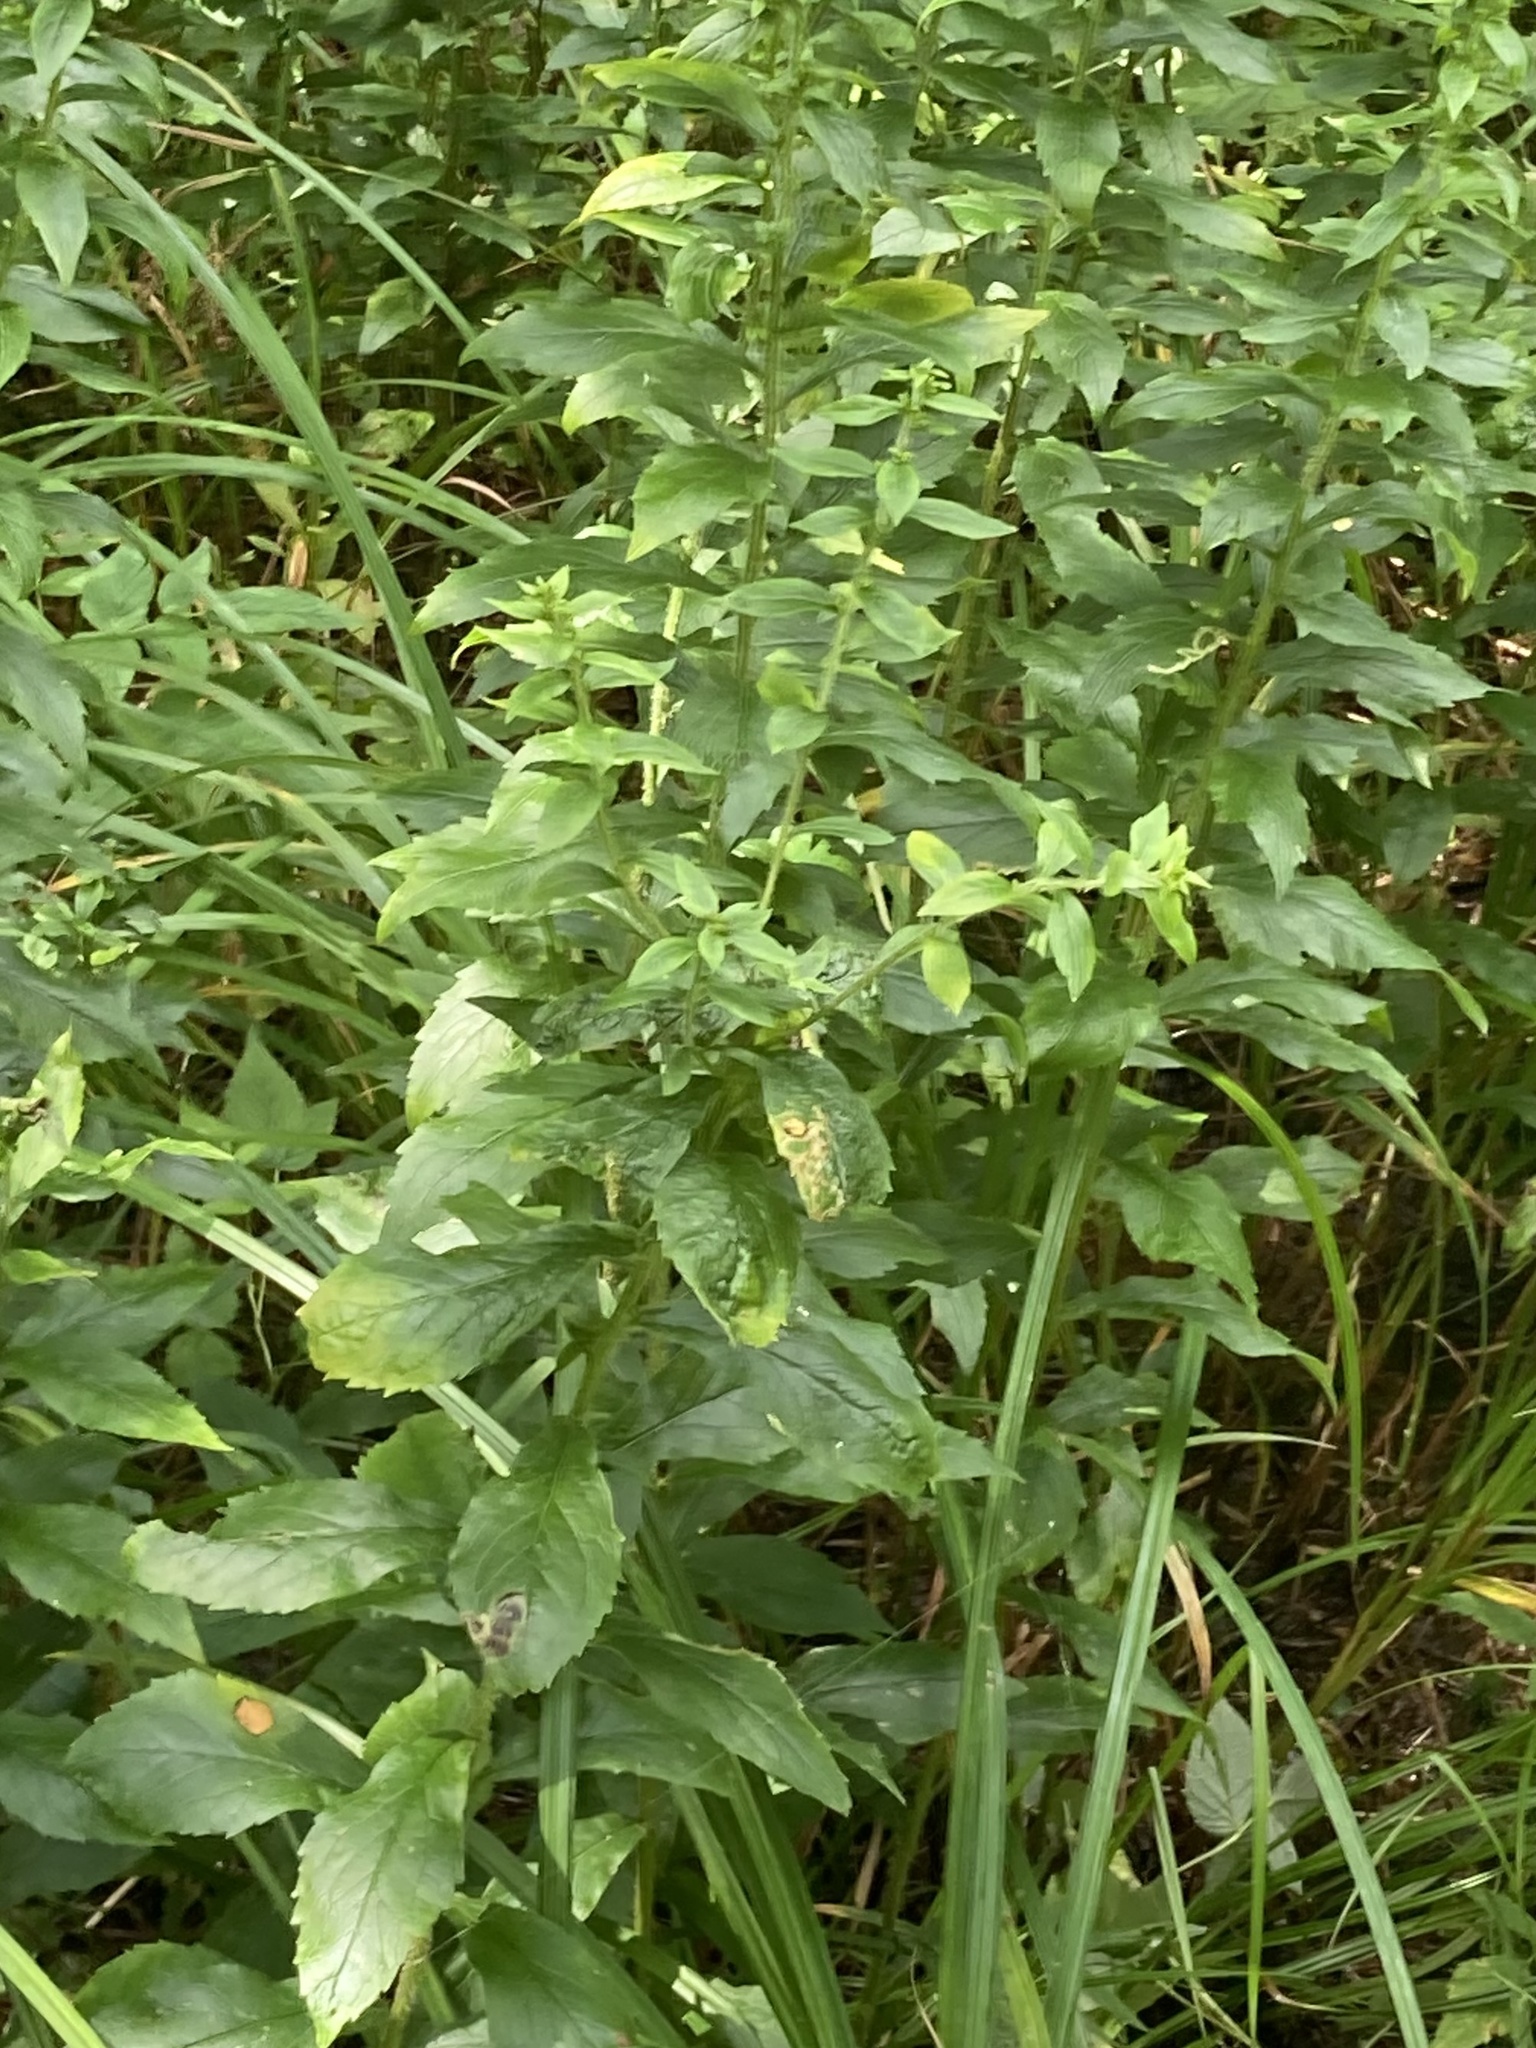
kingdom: Plantae
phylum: Tracheophyta
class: Magnoliopsida
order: Asterales
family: Asteraceae
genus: Solidago
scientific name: Solidago rugosa
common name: Rough-stemmed goldenrod
